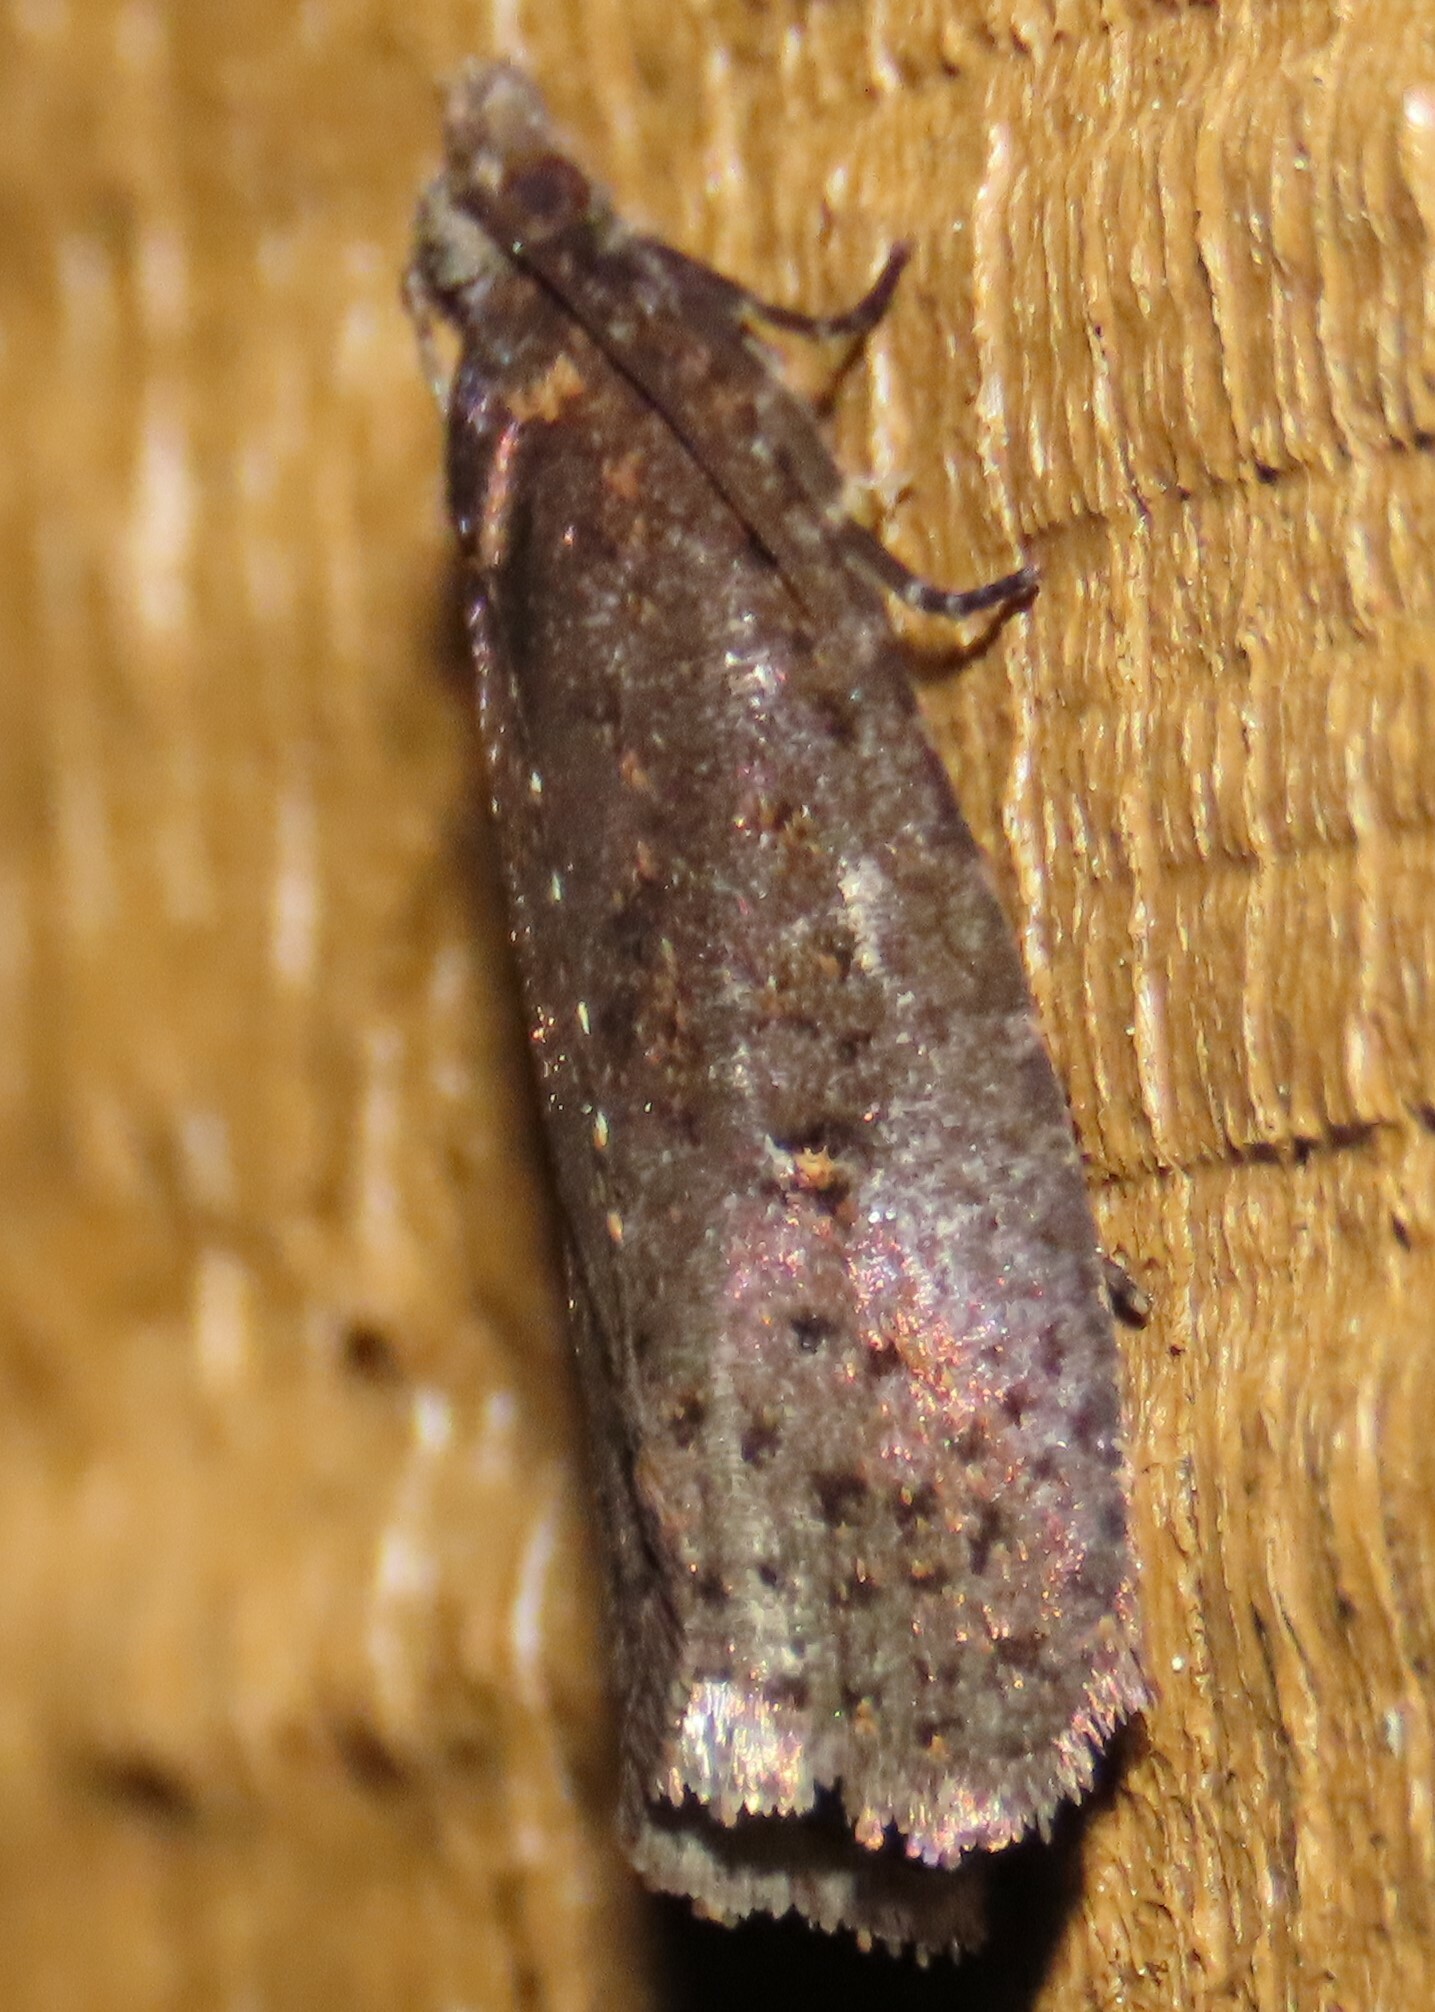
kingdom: Animalia
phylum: Arthropoda
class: Insecta
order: Lepidoptera
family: Tortricidae
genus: Cryptaspasma
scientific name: Cryptaspasma querula
